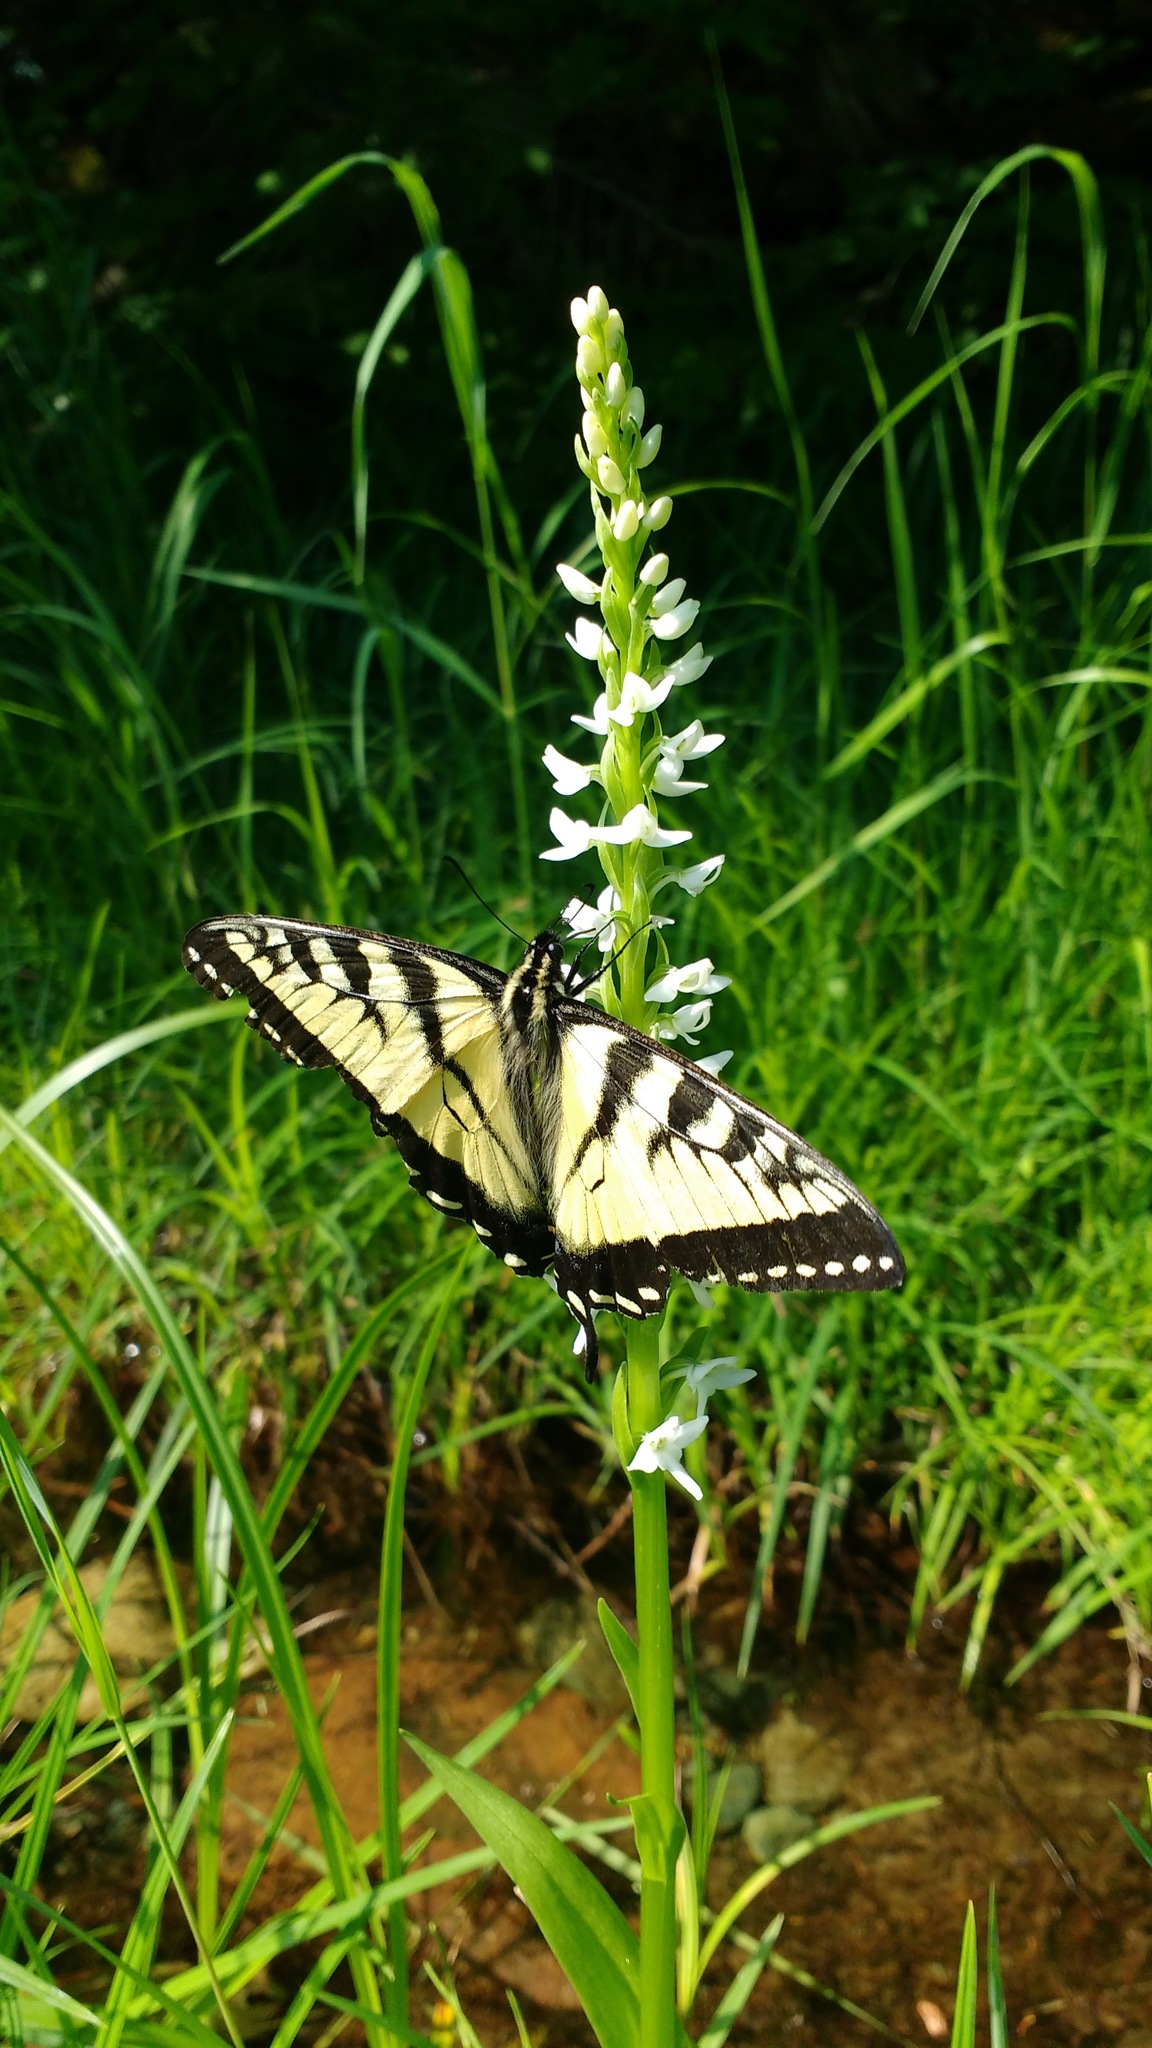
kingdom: Animalia
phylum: Arthropoda
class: Insecta
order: Lepidoptera
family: Papilionidae
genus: Papilio
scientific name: Papilio canadensis
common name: Canadian tiger swallowtail
